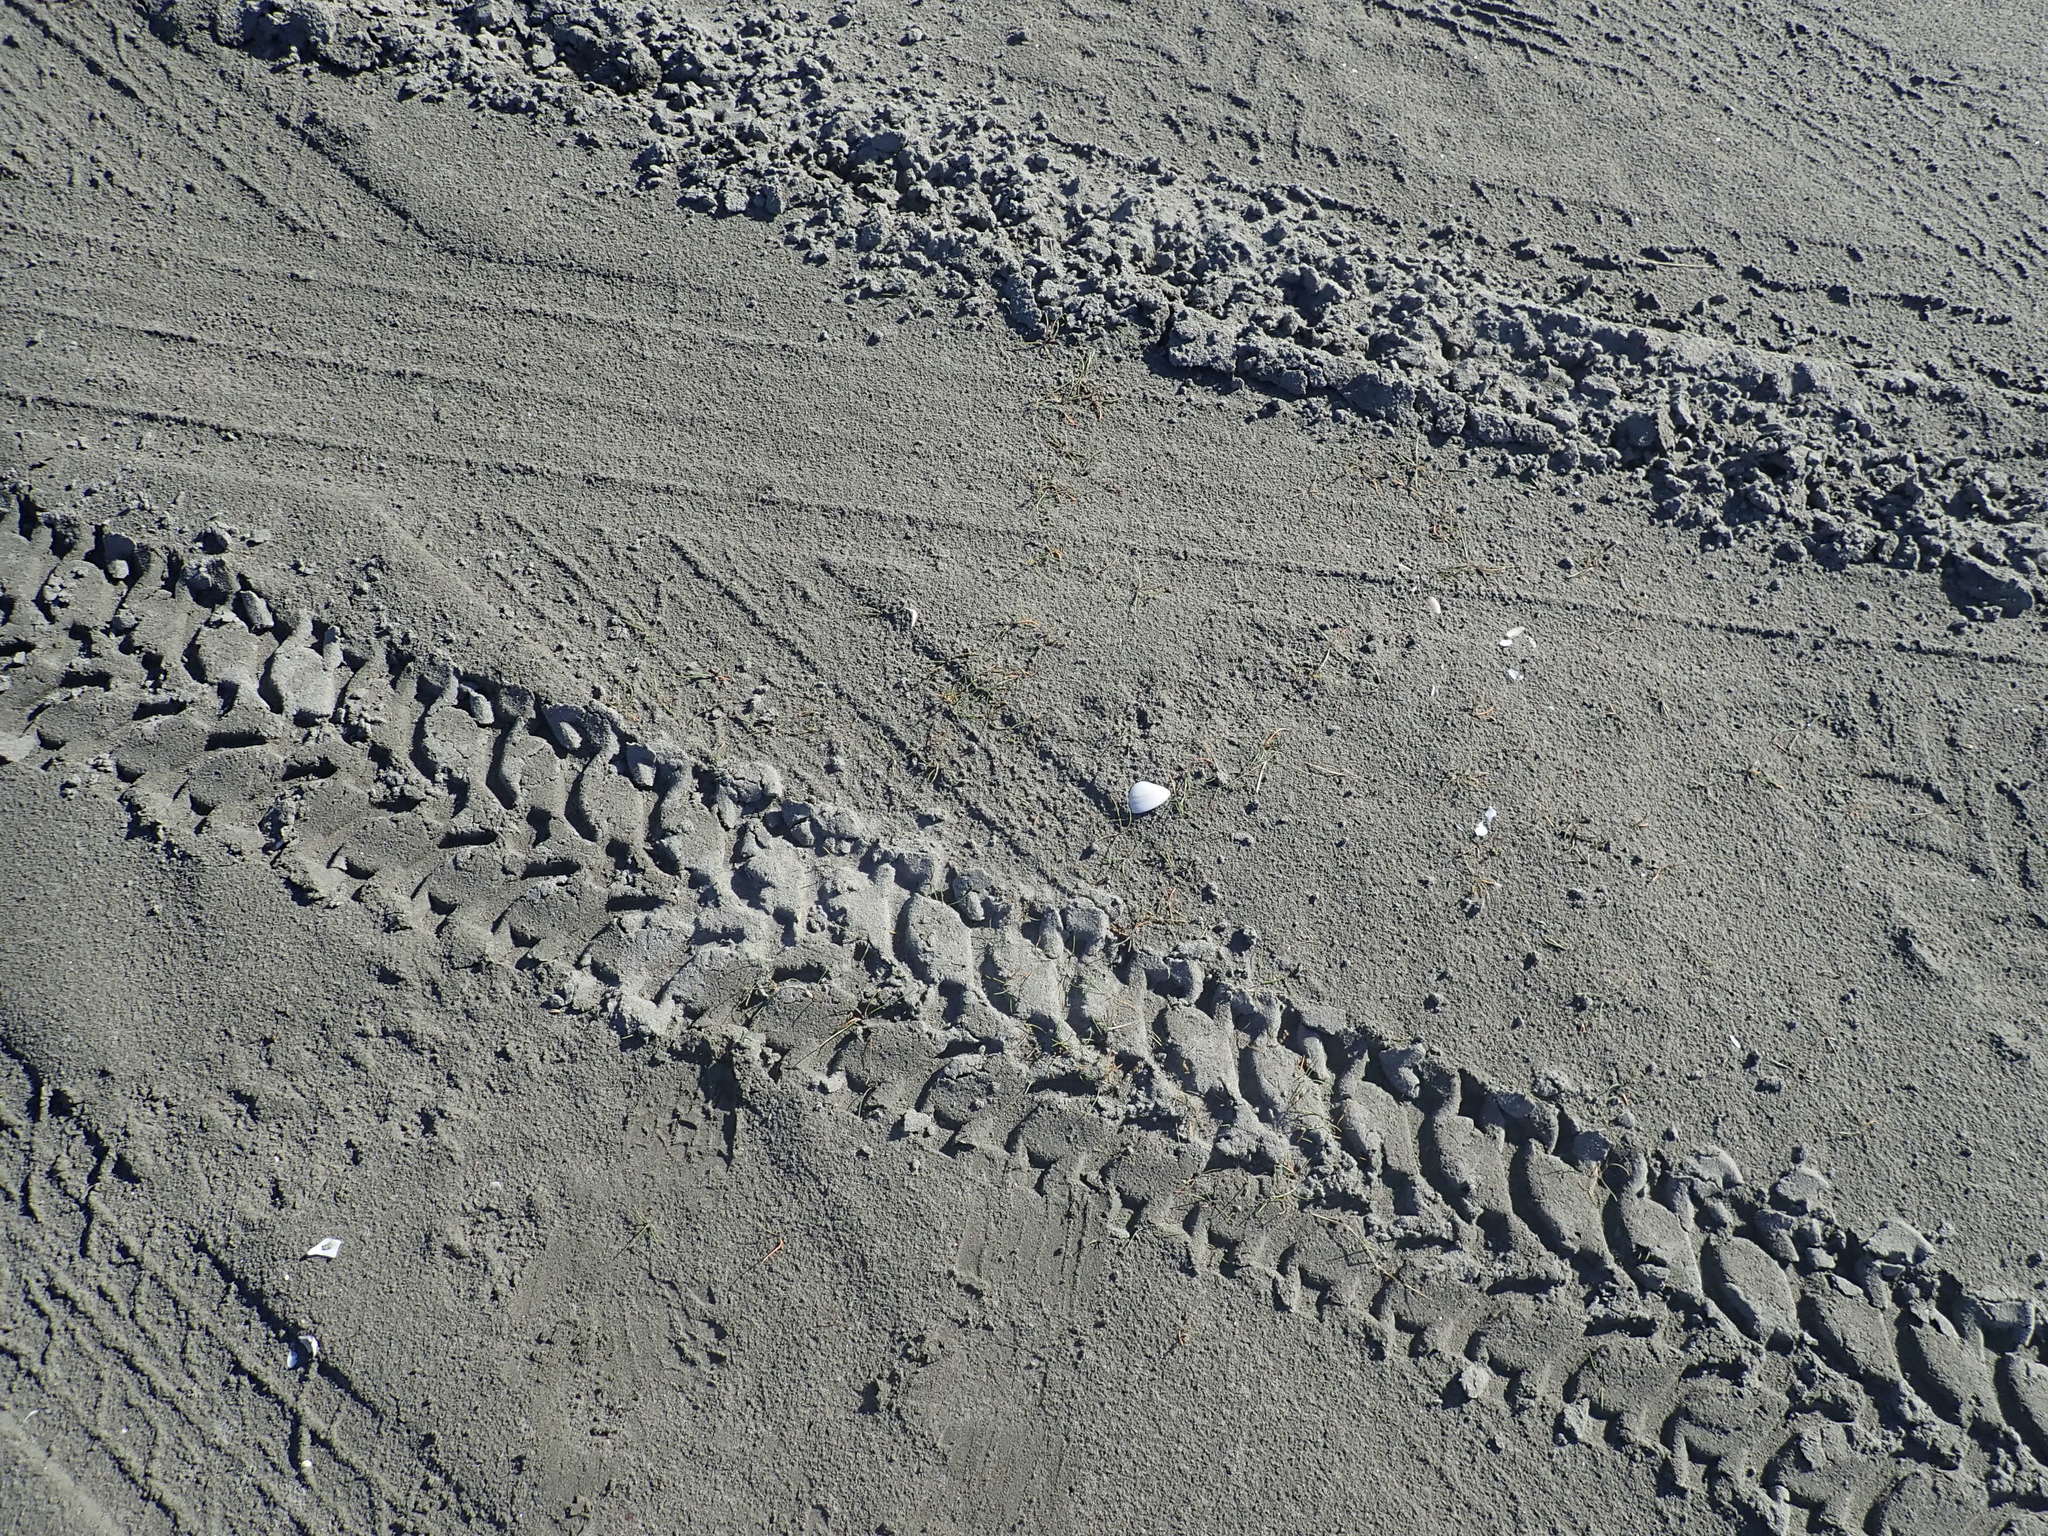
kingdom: Plantae
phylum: Tracheophyta
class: Liliopsida
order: Alismatales
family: Juncaginaceae
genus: Triglochin
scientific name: Triglochin striata
